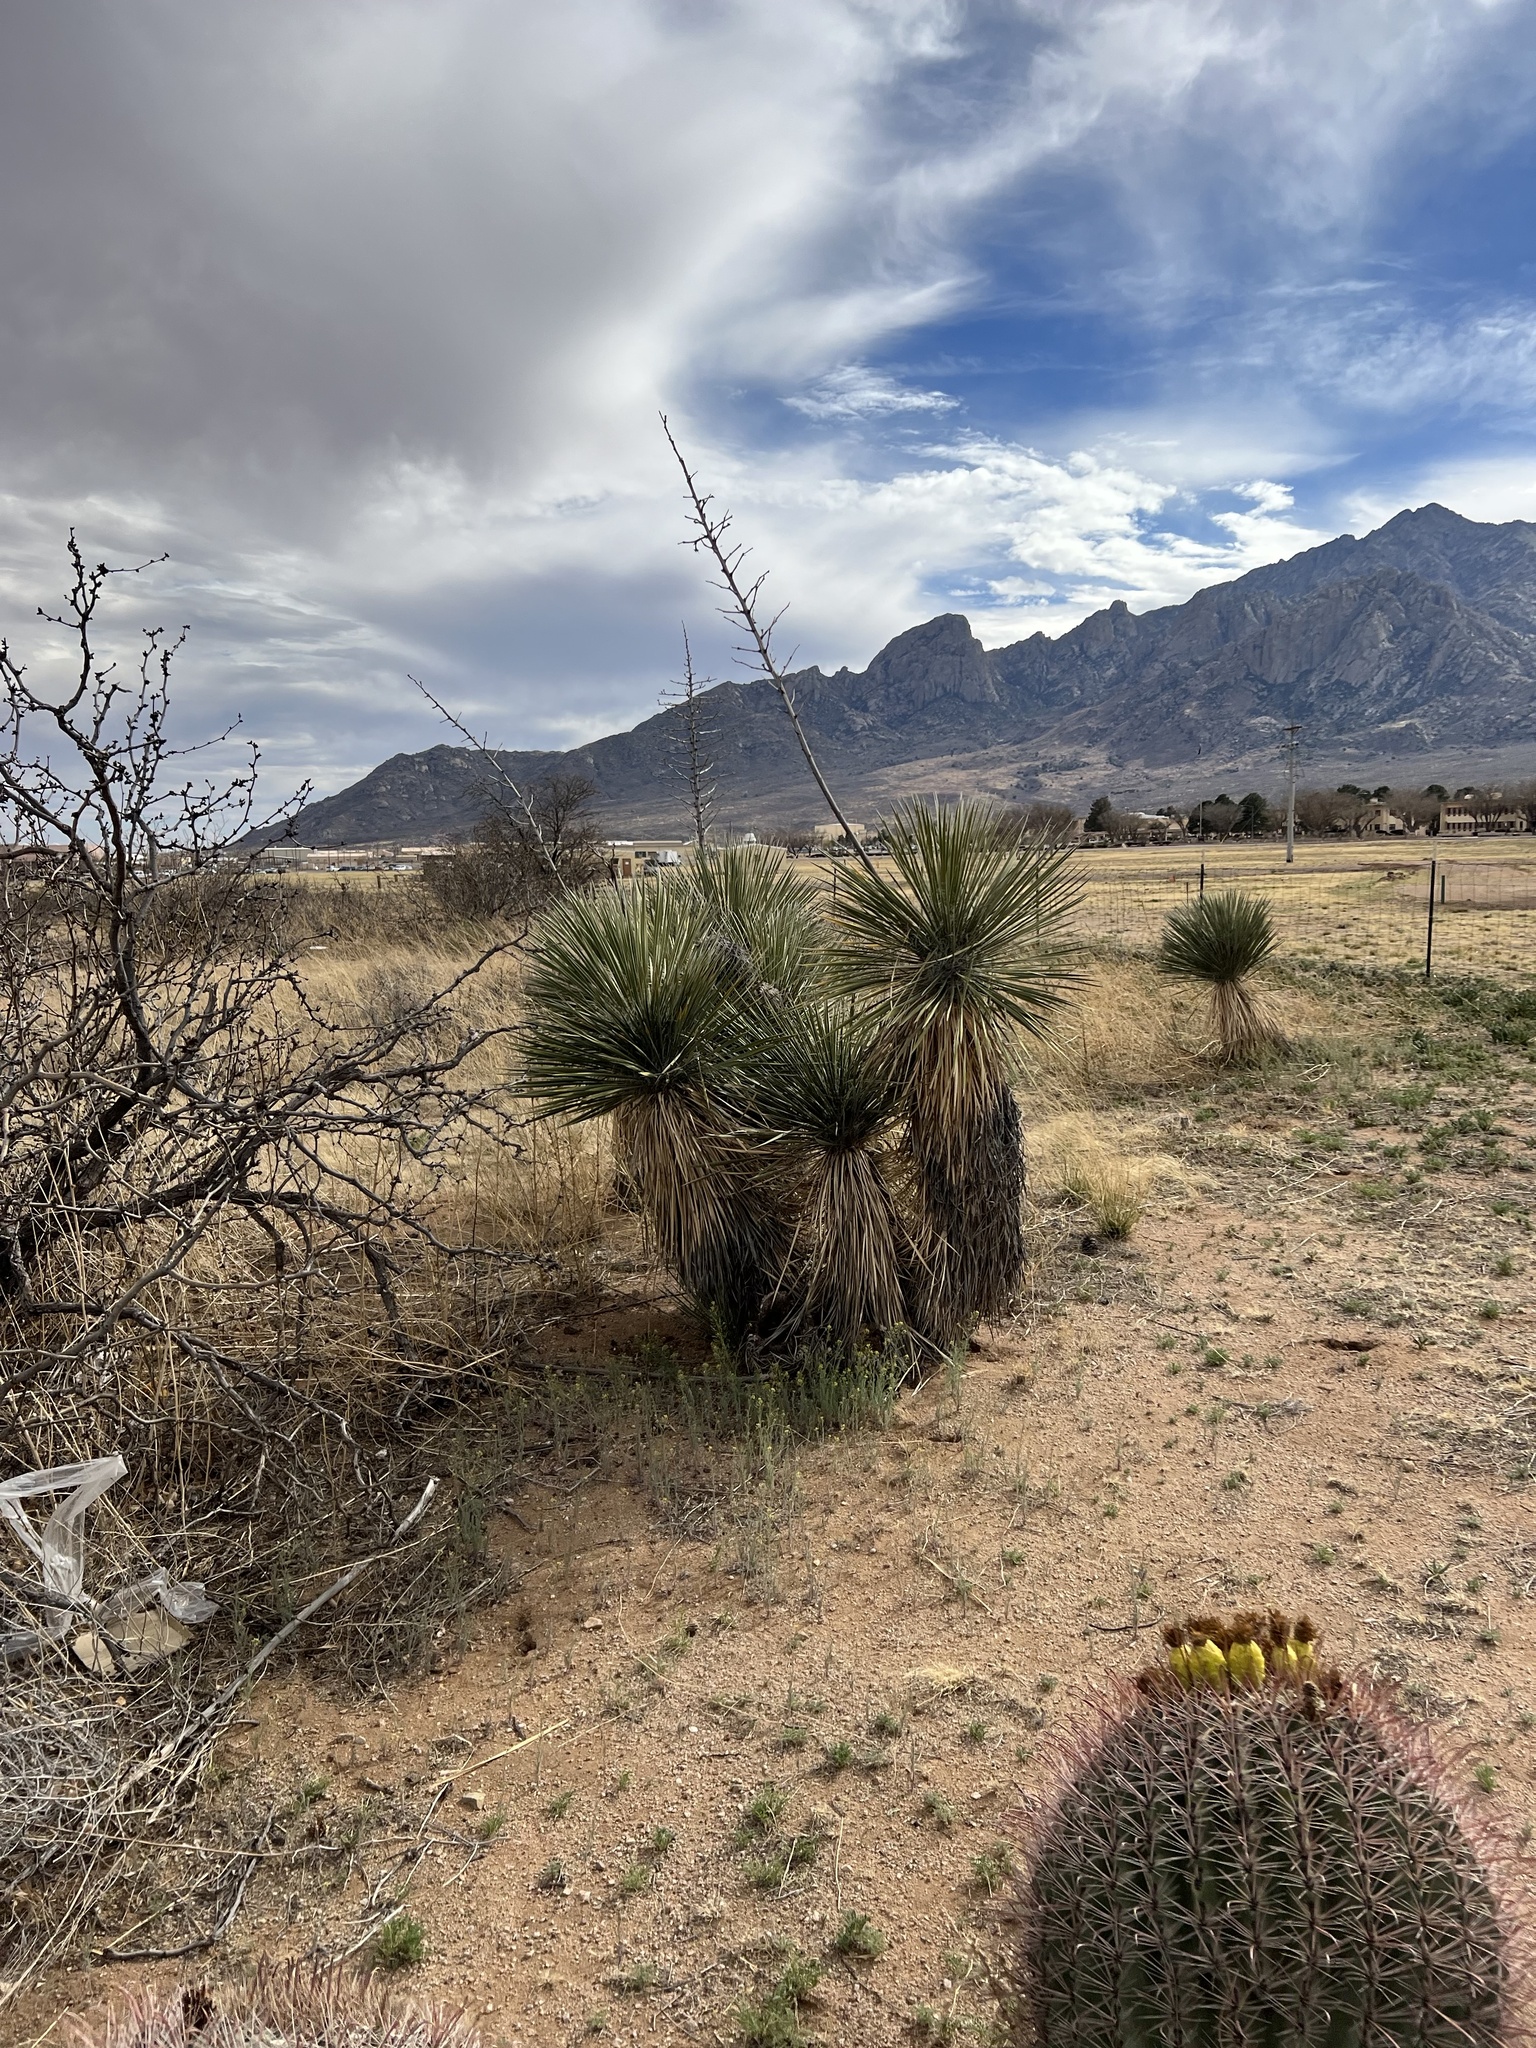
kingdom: Plantae
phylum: Tracheophyta
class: Liliopsida
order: Asparagales
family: Asparagaceae
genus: Yucca
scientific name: Yucca elata
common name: Palmella
